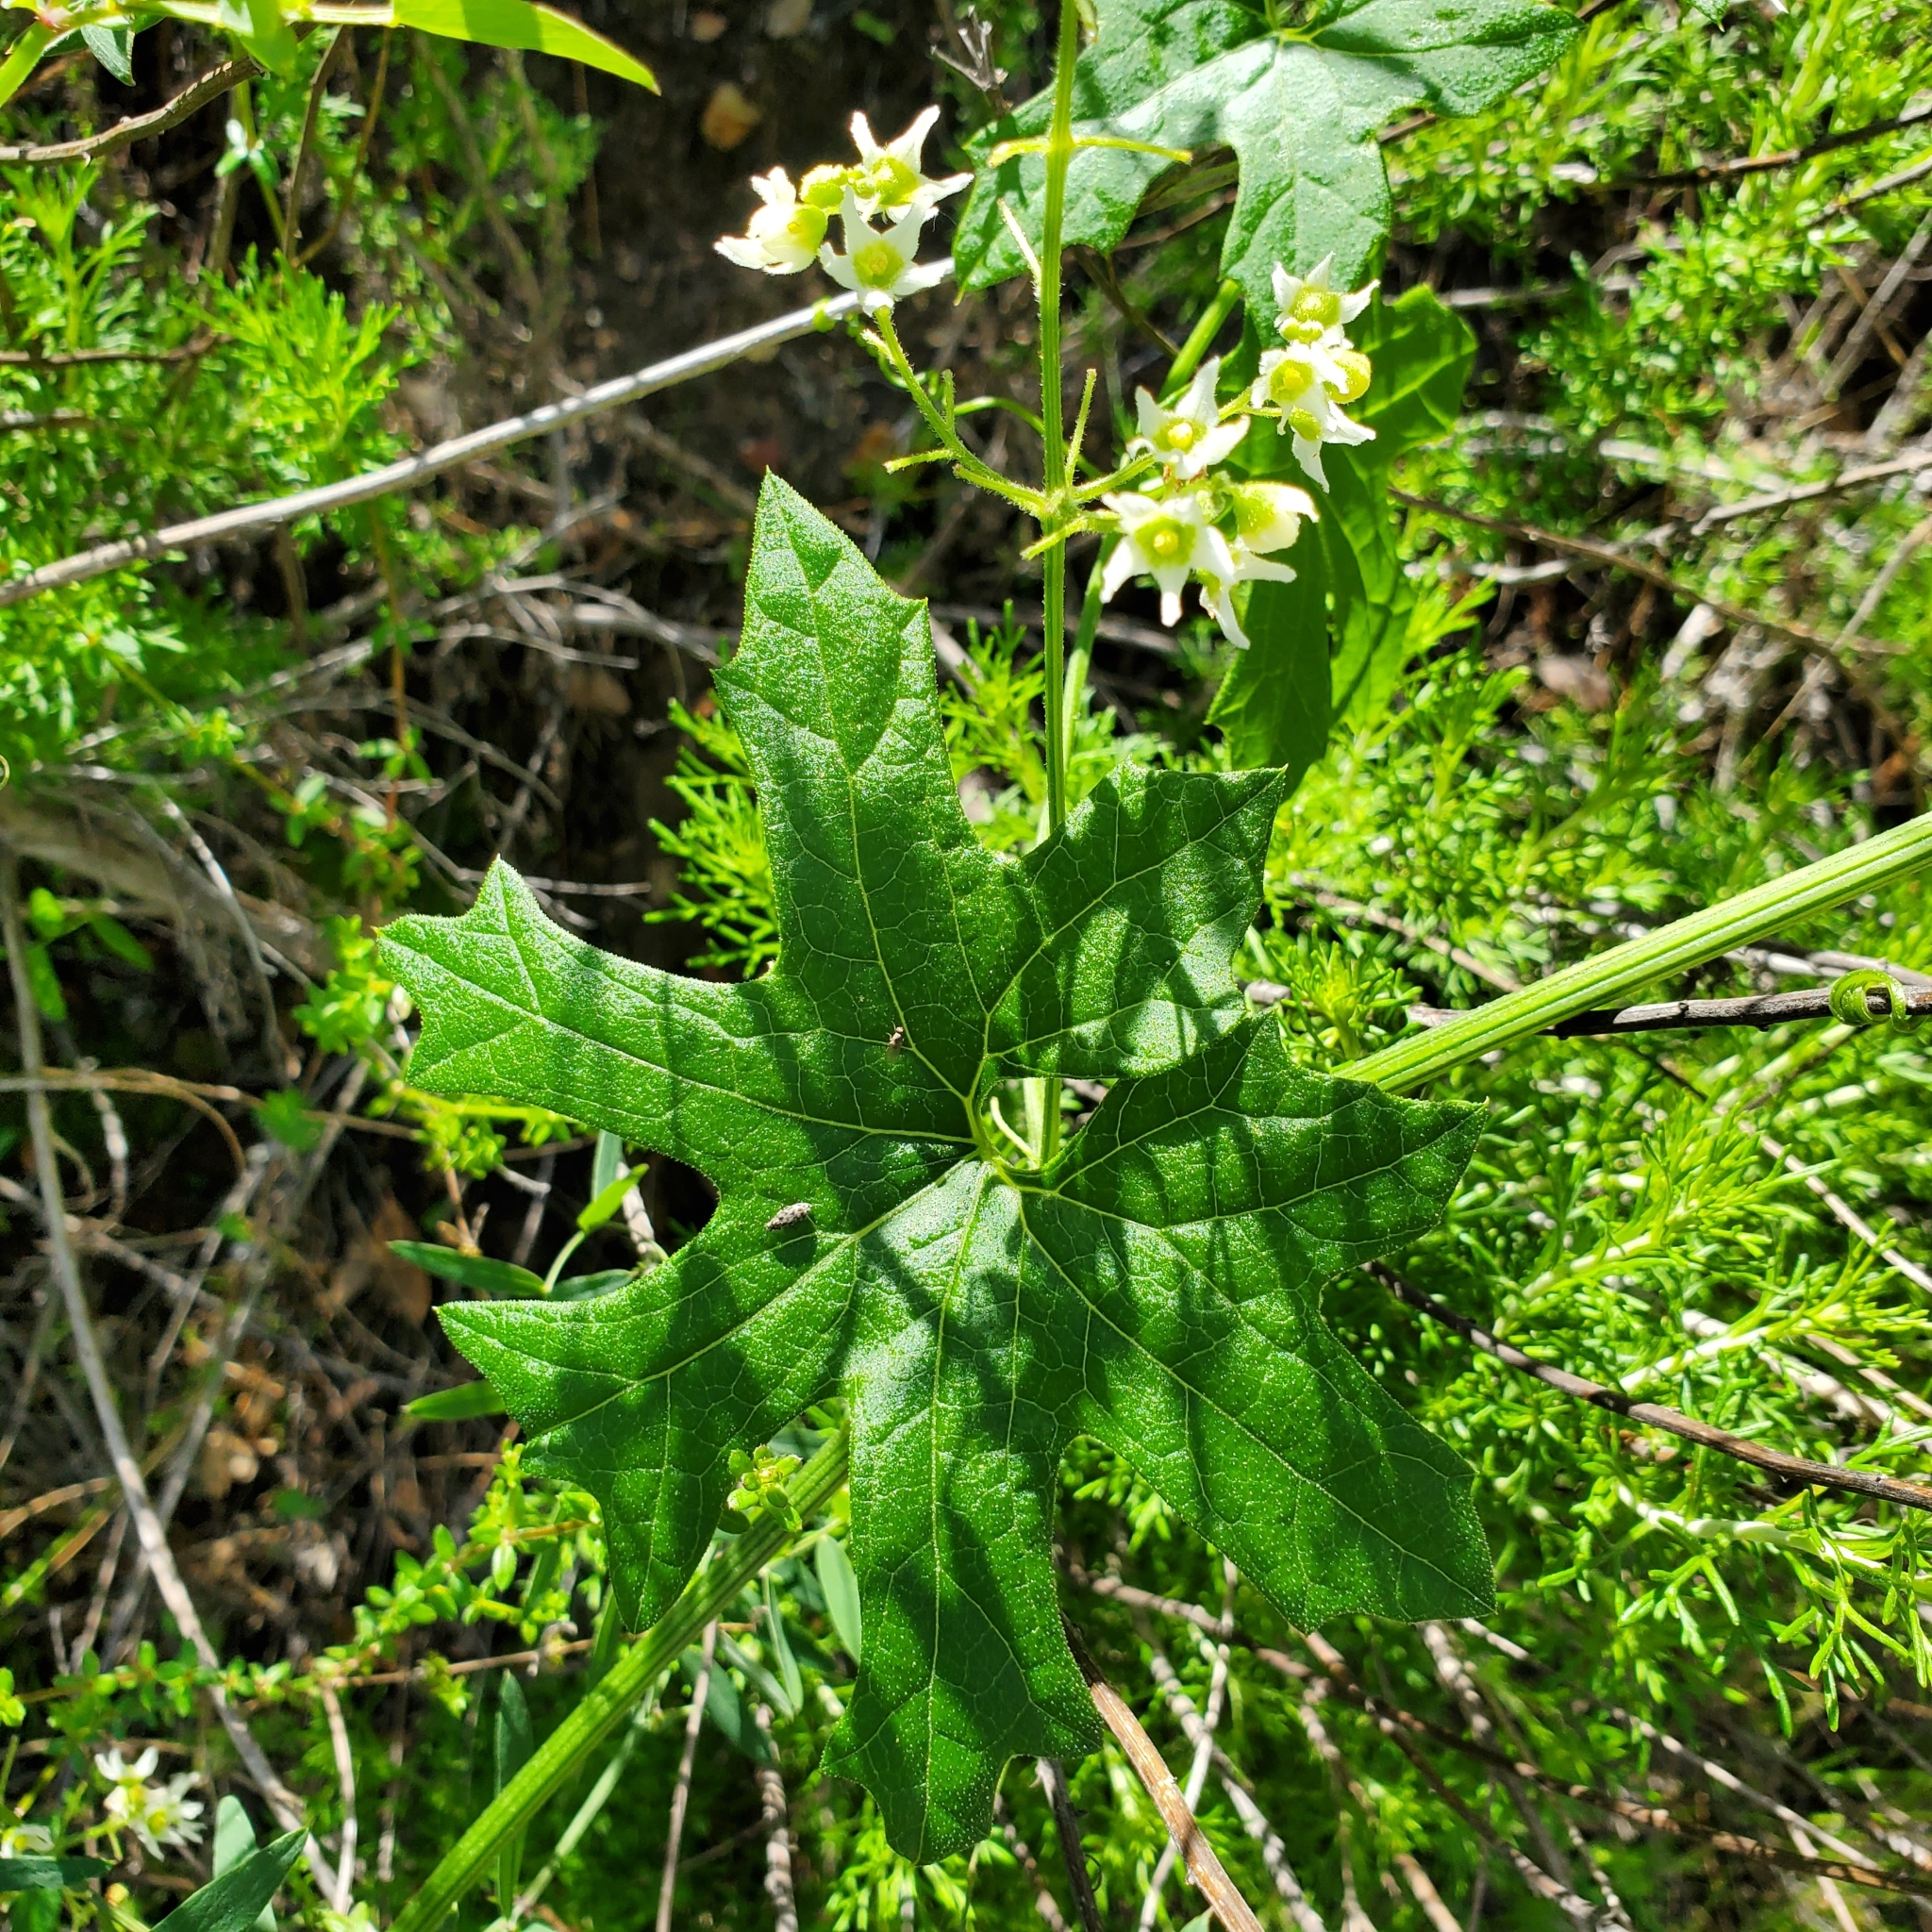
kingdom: Plantae
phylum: Tracheophyta
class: Magnoliopsida
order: Cucurbitales
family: Cucurbitaceae
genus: Marah
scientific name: Marah macrocarpa
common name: Cucamonga manroot
